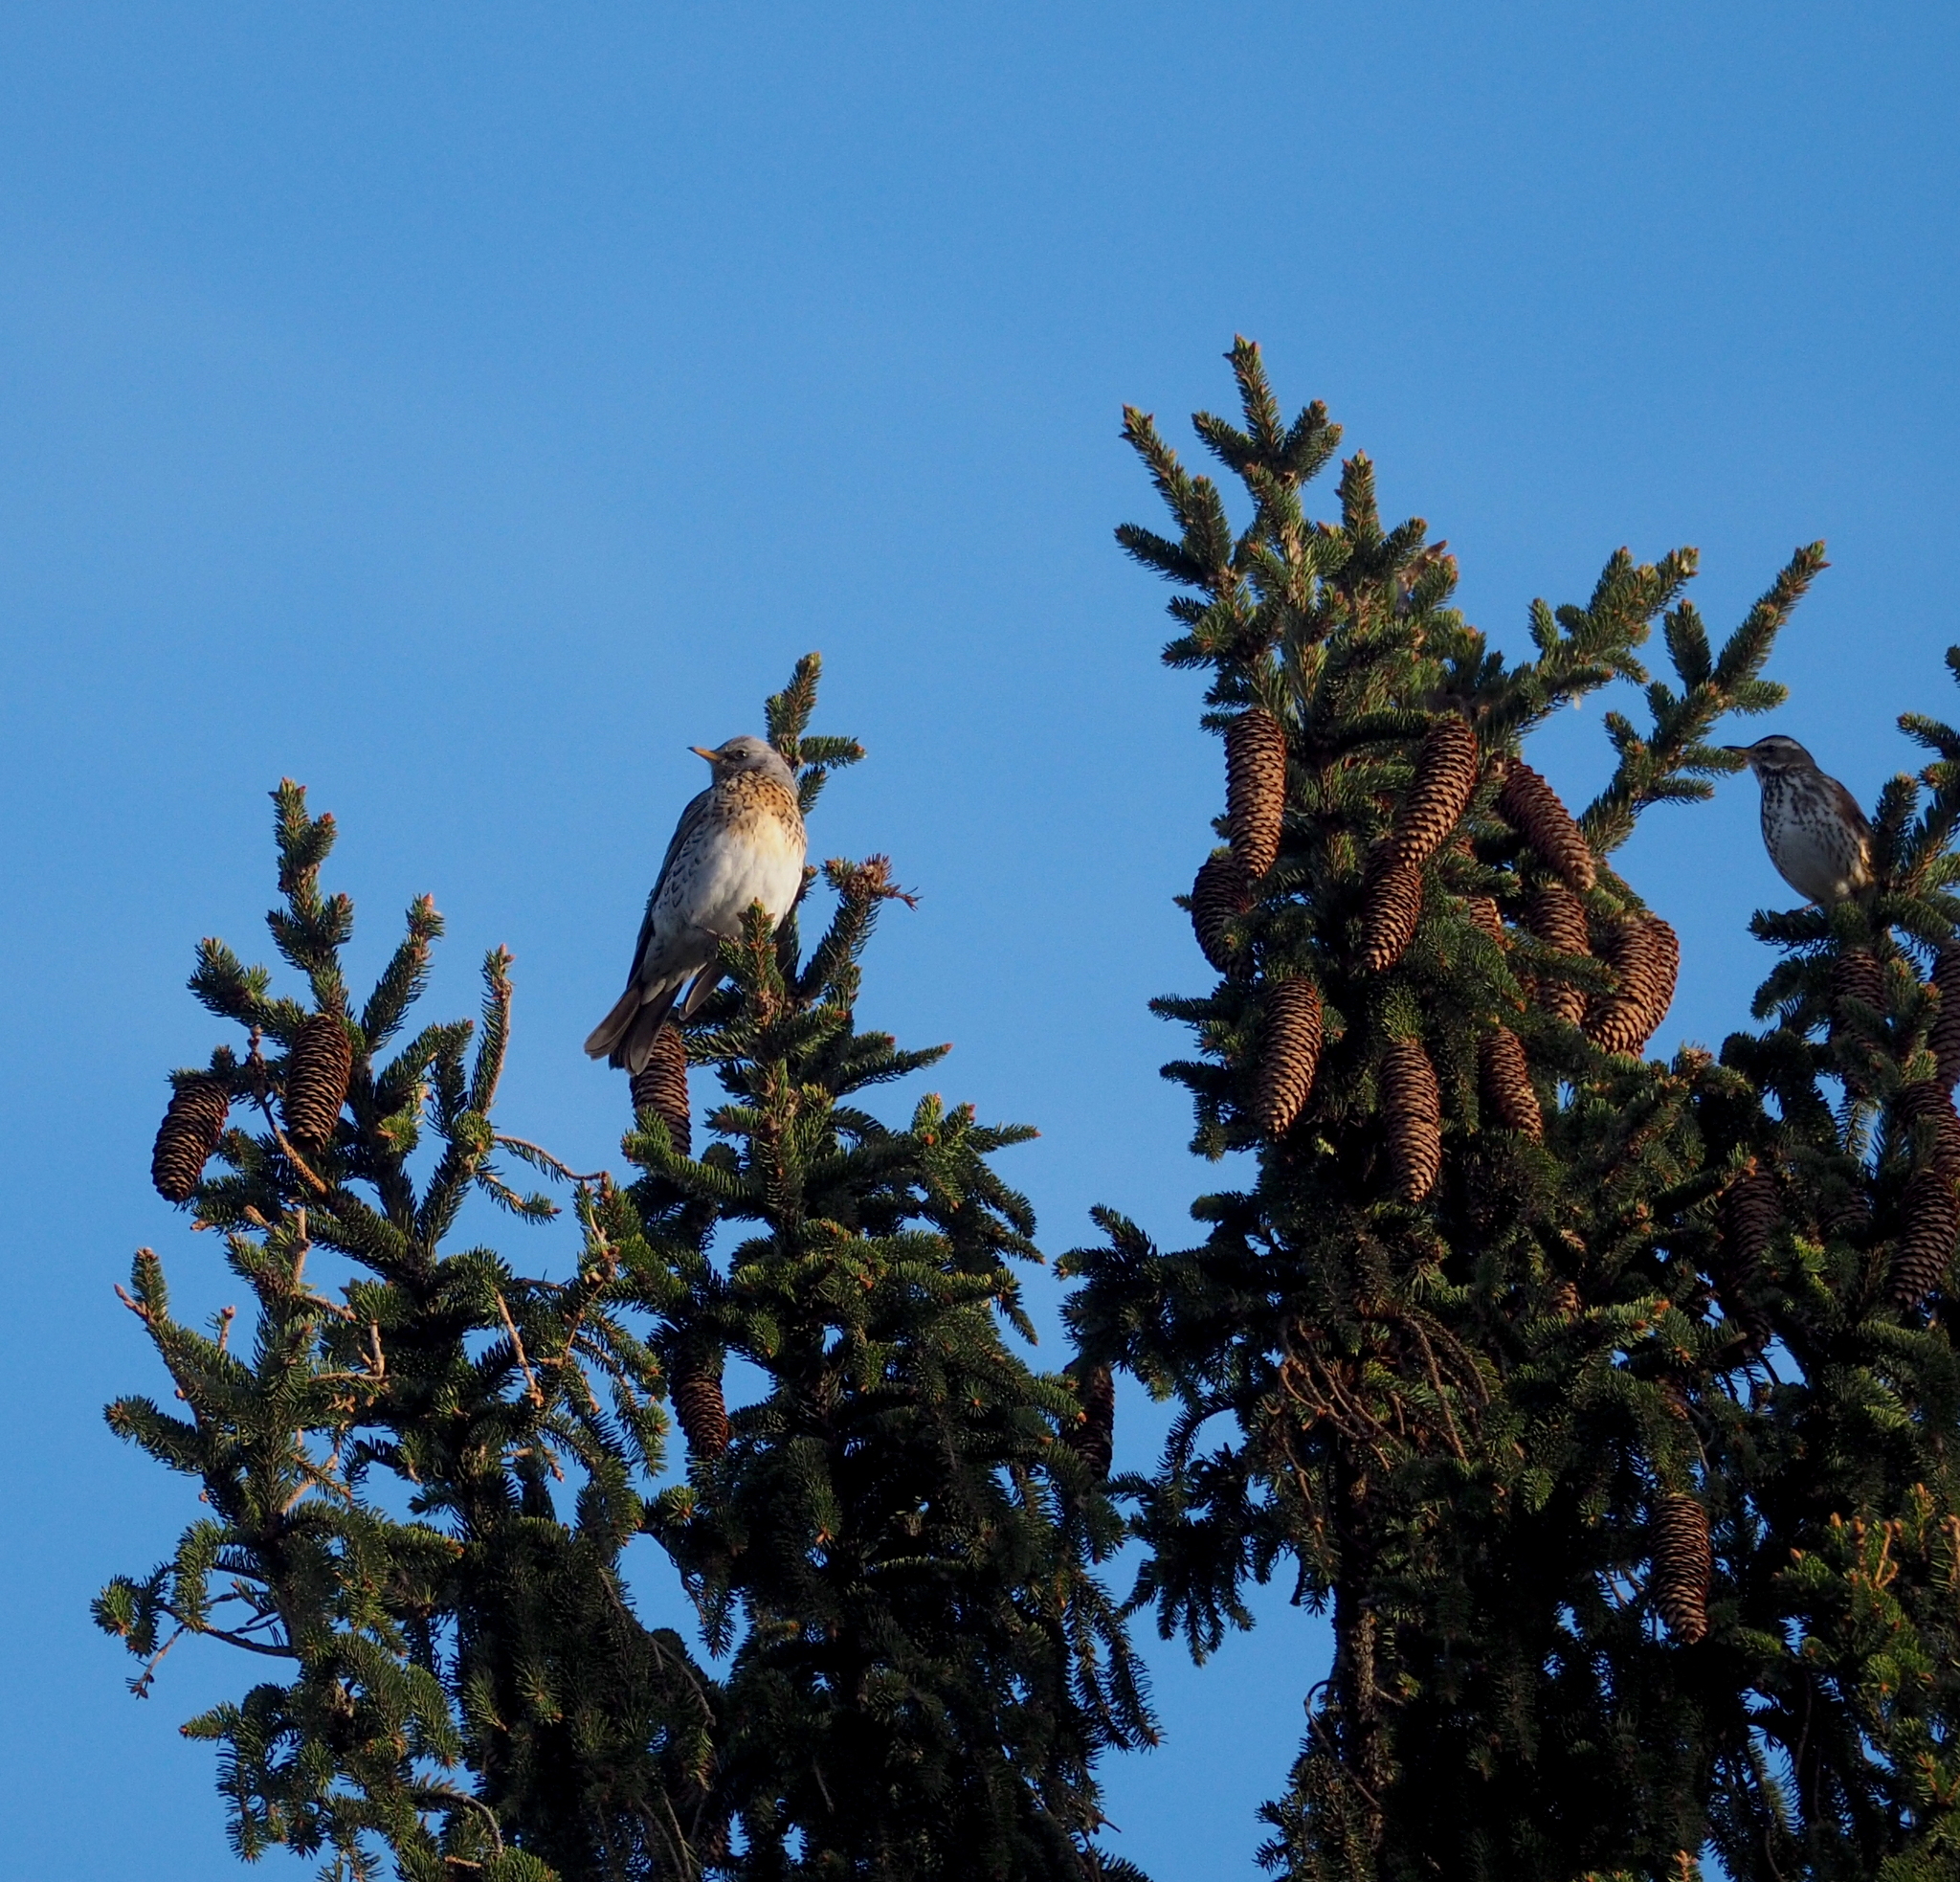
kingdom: Animalia
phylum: Chordata
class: Aves
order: Passeriformes
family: Turdidae
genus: Turdus
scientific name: Turdus pilaris
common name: Fieldfare
